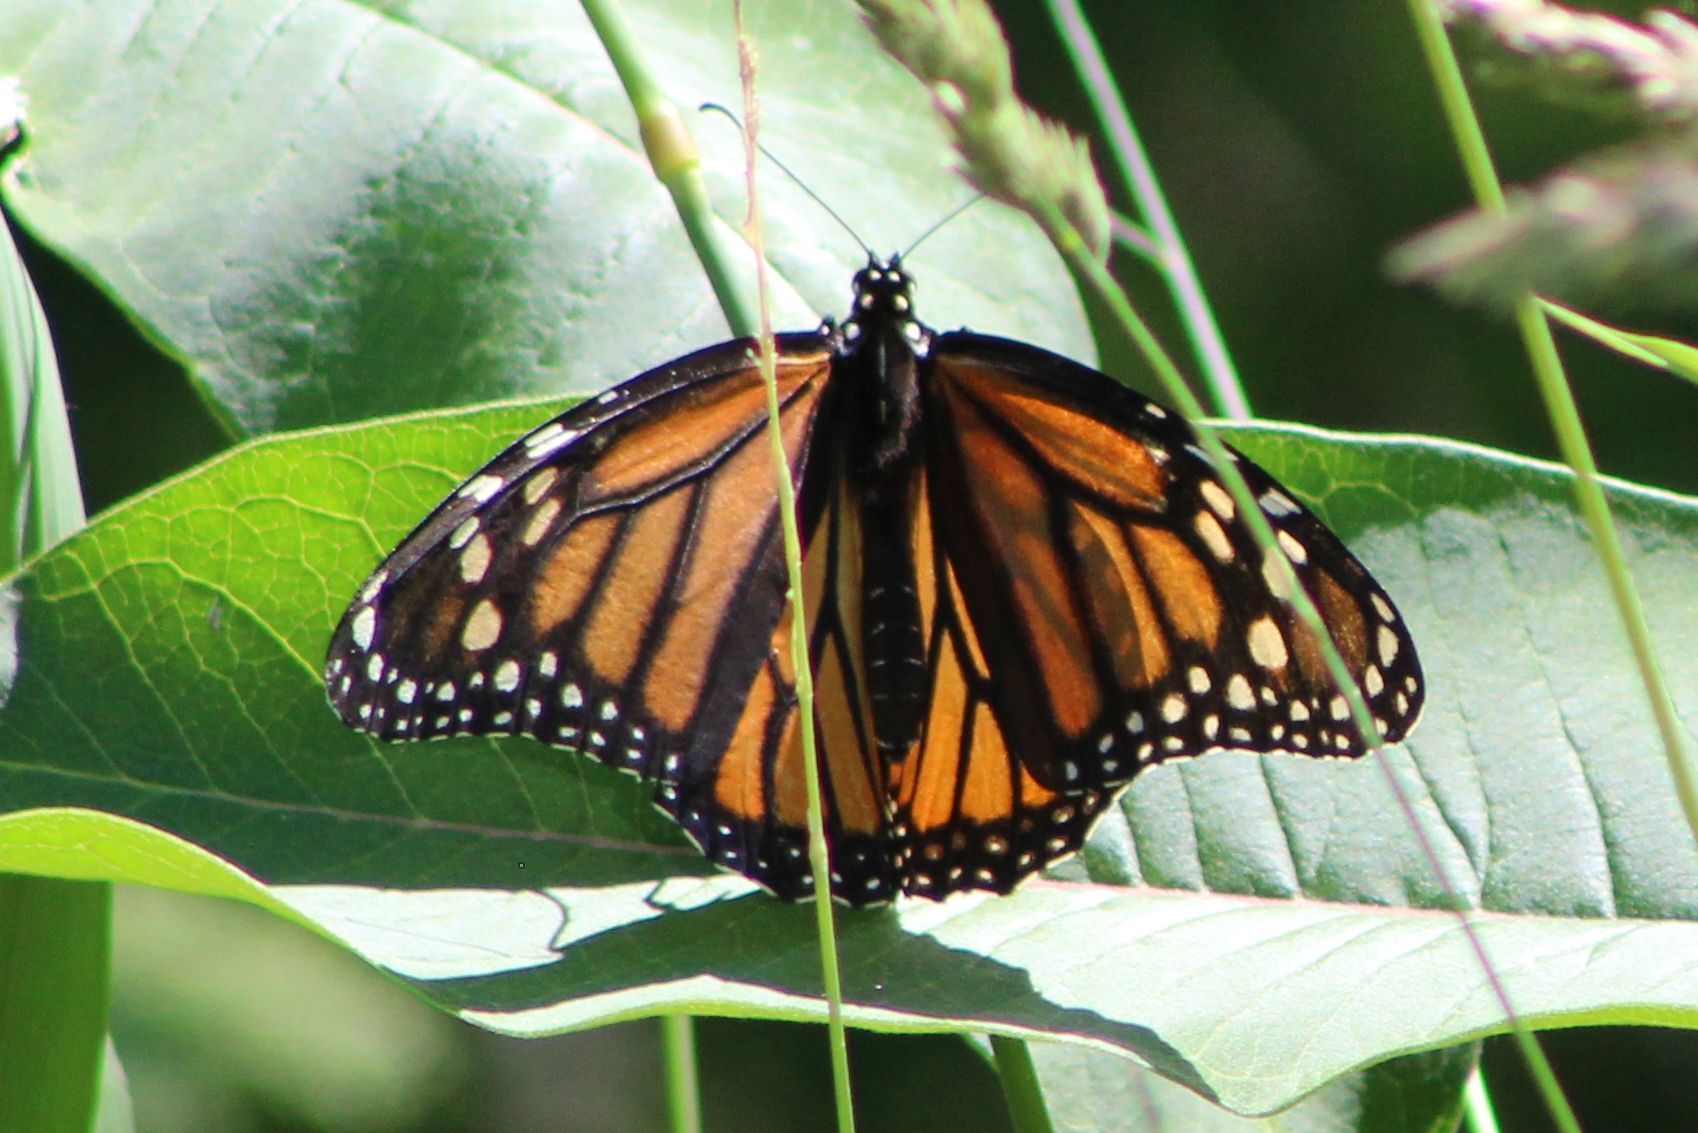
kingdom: Animalia
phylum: Arthropoda
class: Insecta
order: Lepidoptera
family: Nymphalidae
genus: Danaus
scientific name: Danaus plexippus
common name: Monarch
